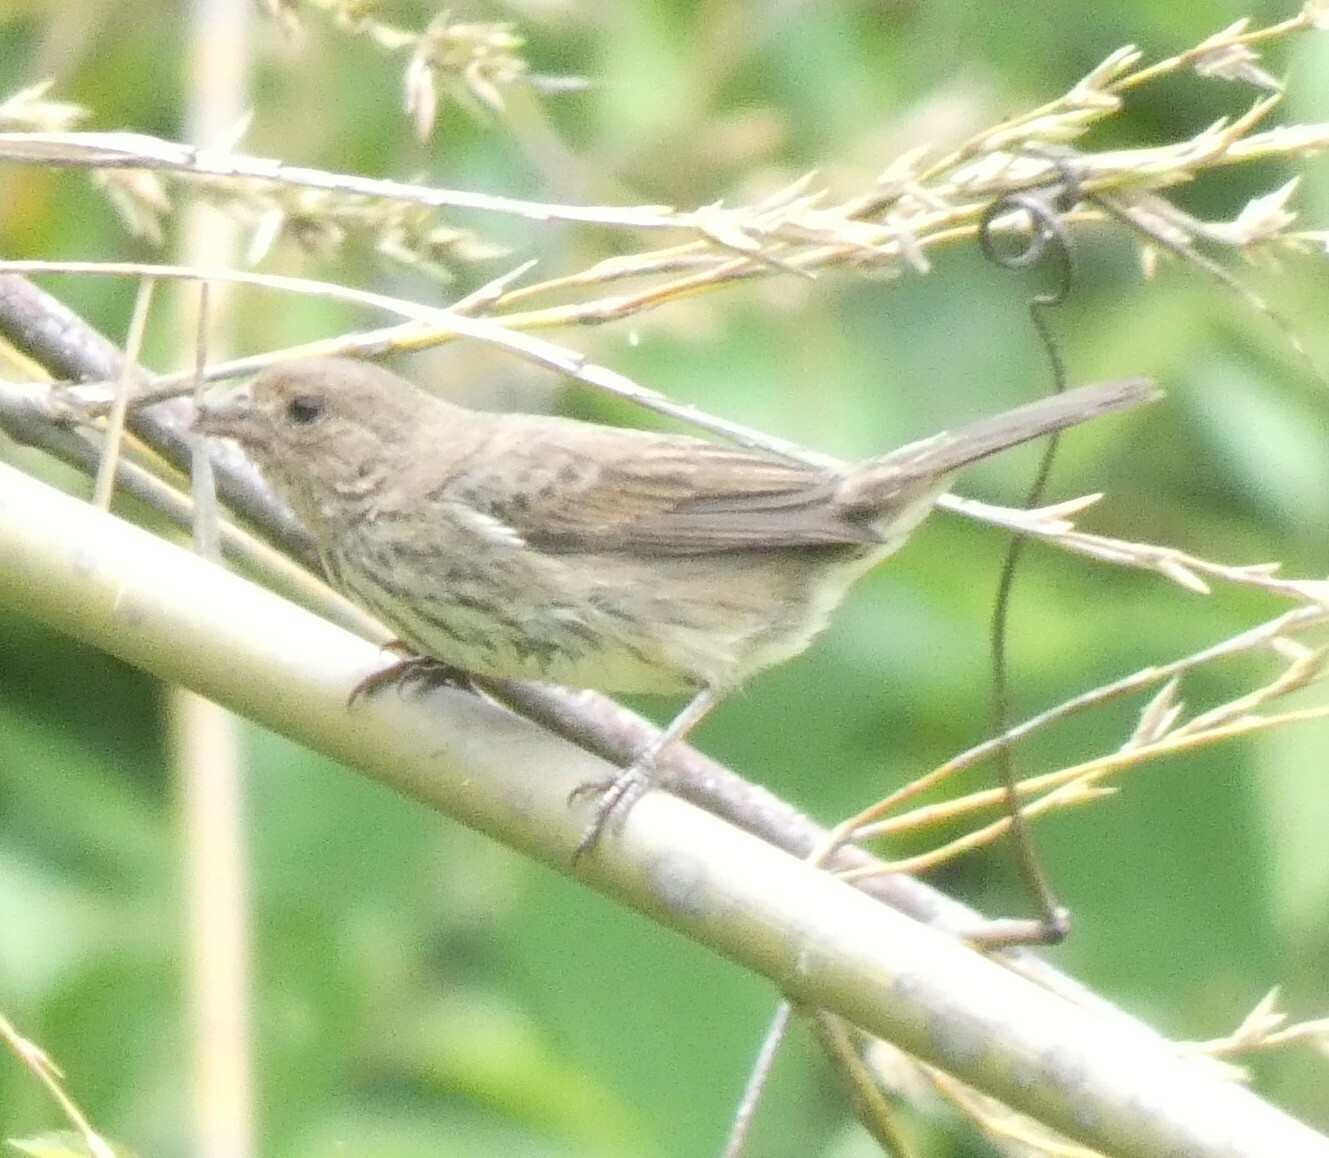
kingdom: Animalia
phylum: Chordata
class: Aves
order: Passeriformes
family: Thraupidae
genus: Volatinia
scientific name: Volatinia jacarina
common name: Blue-black grassquit
